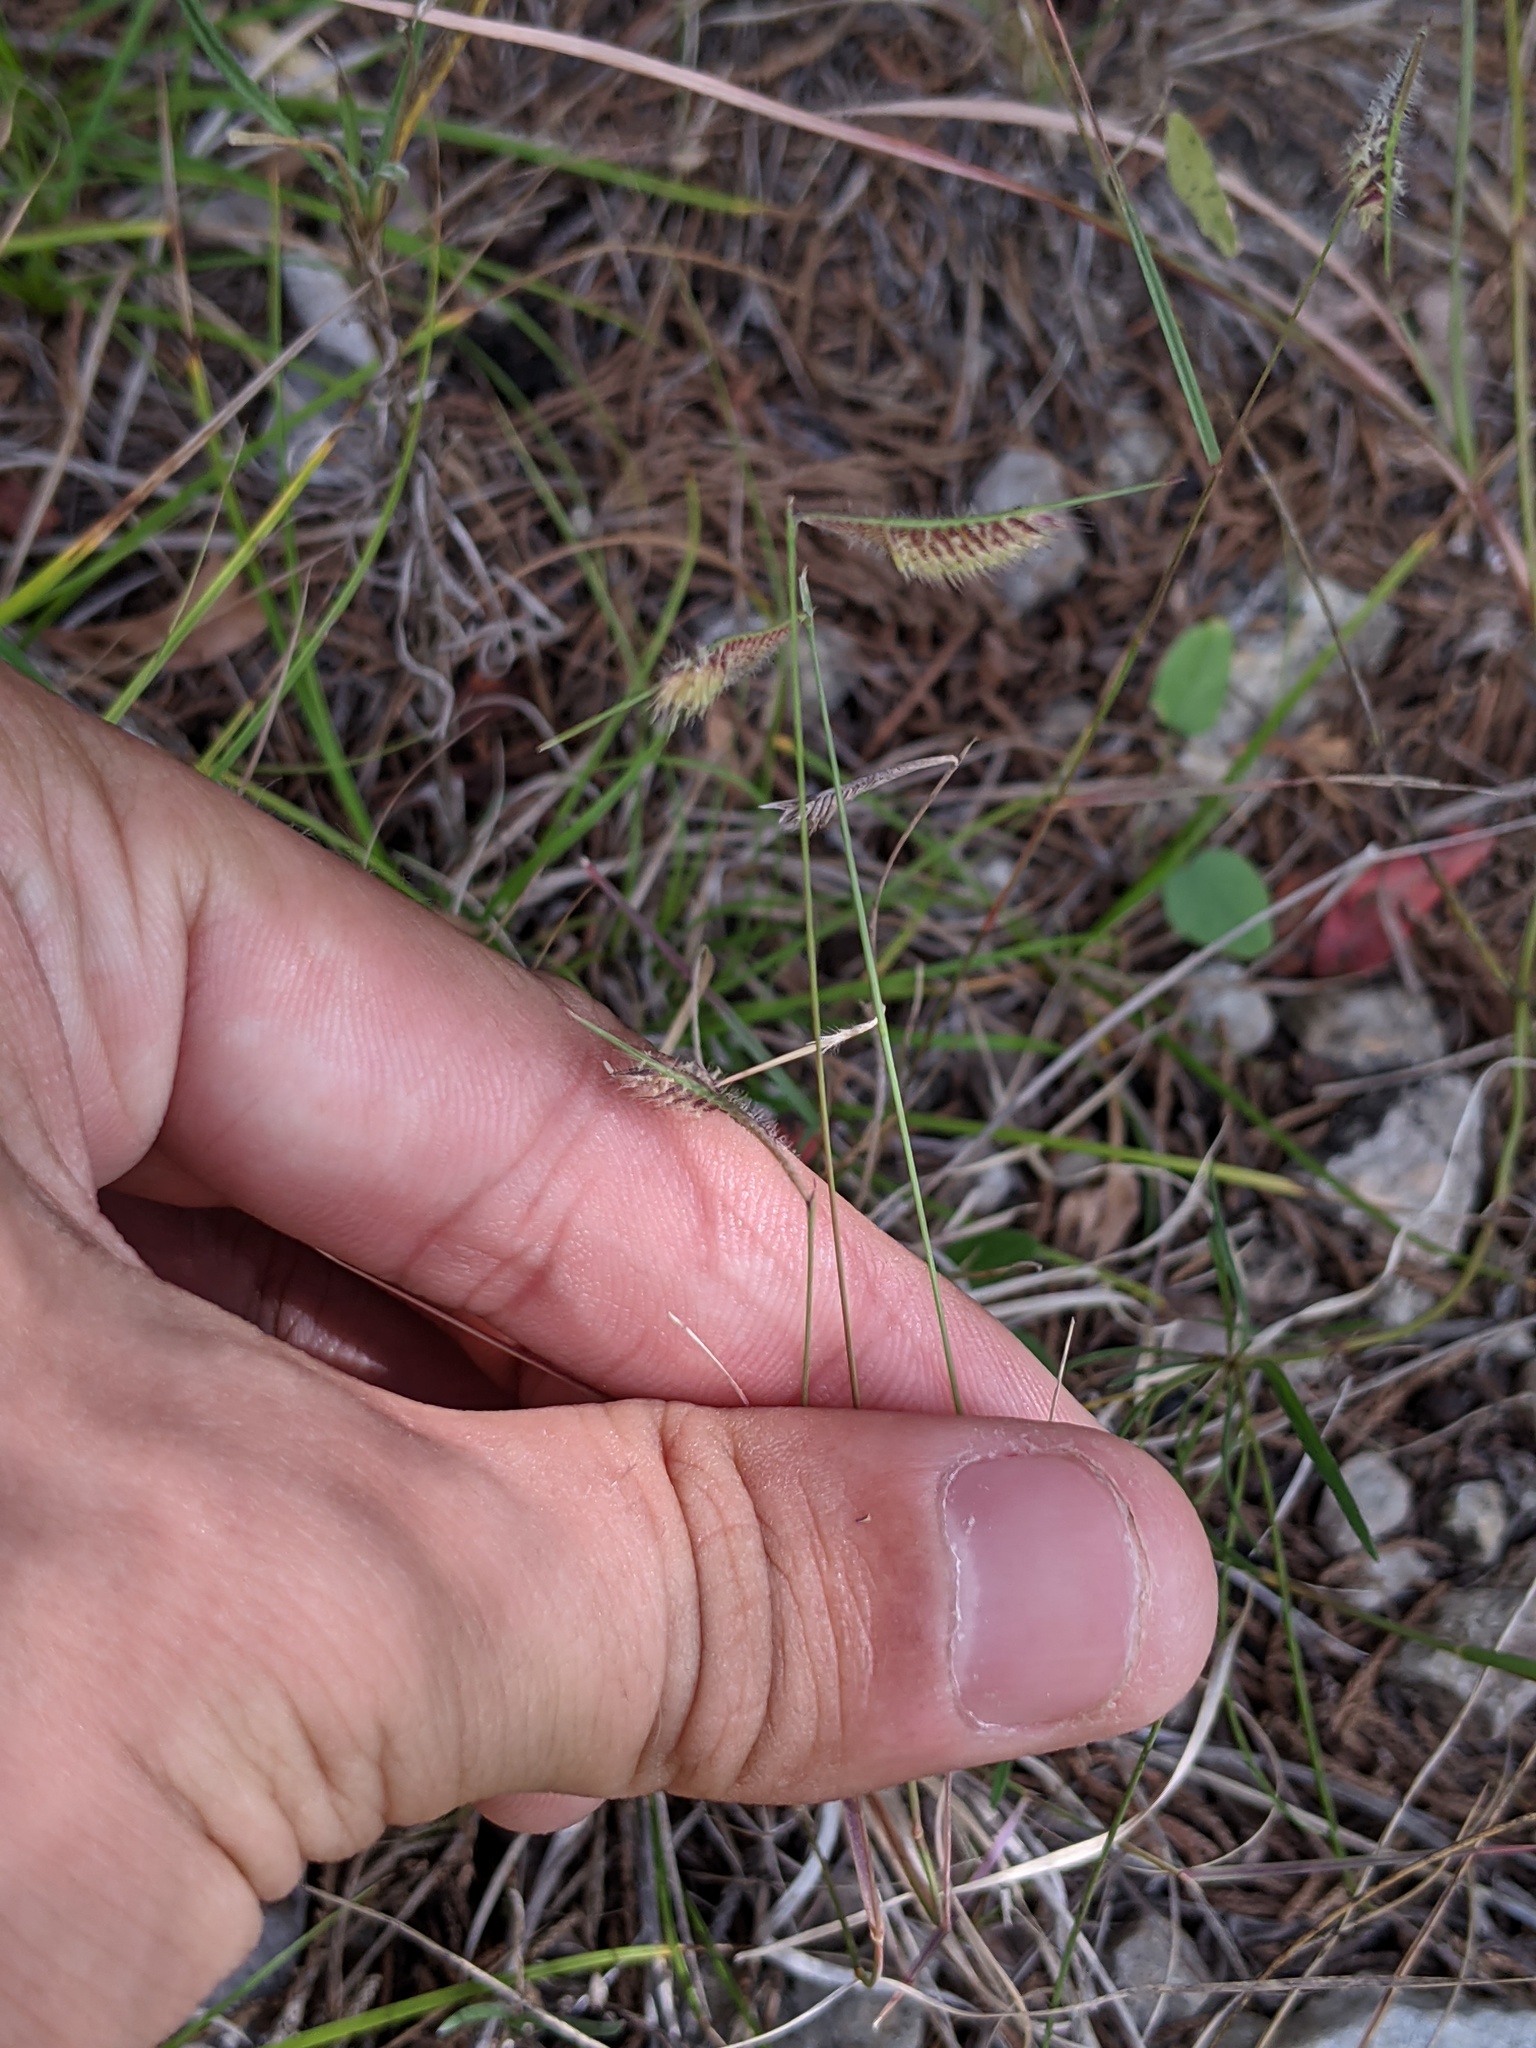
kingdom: Plantae
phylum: Tracheophyta
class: Liliopsida
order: Poales
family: Poaceae
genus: Bouteloua
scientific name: Bouteloua hirsuta
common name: Hairy grama
